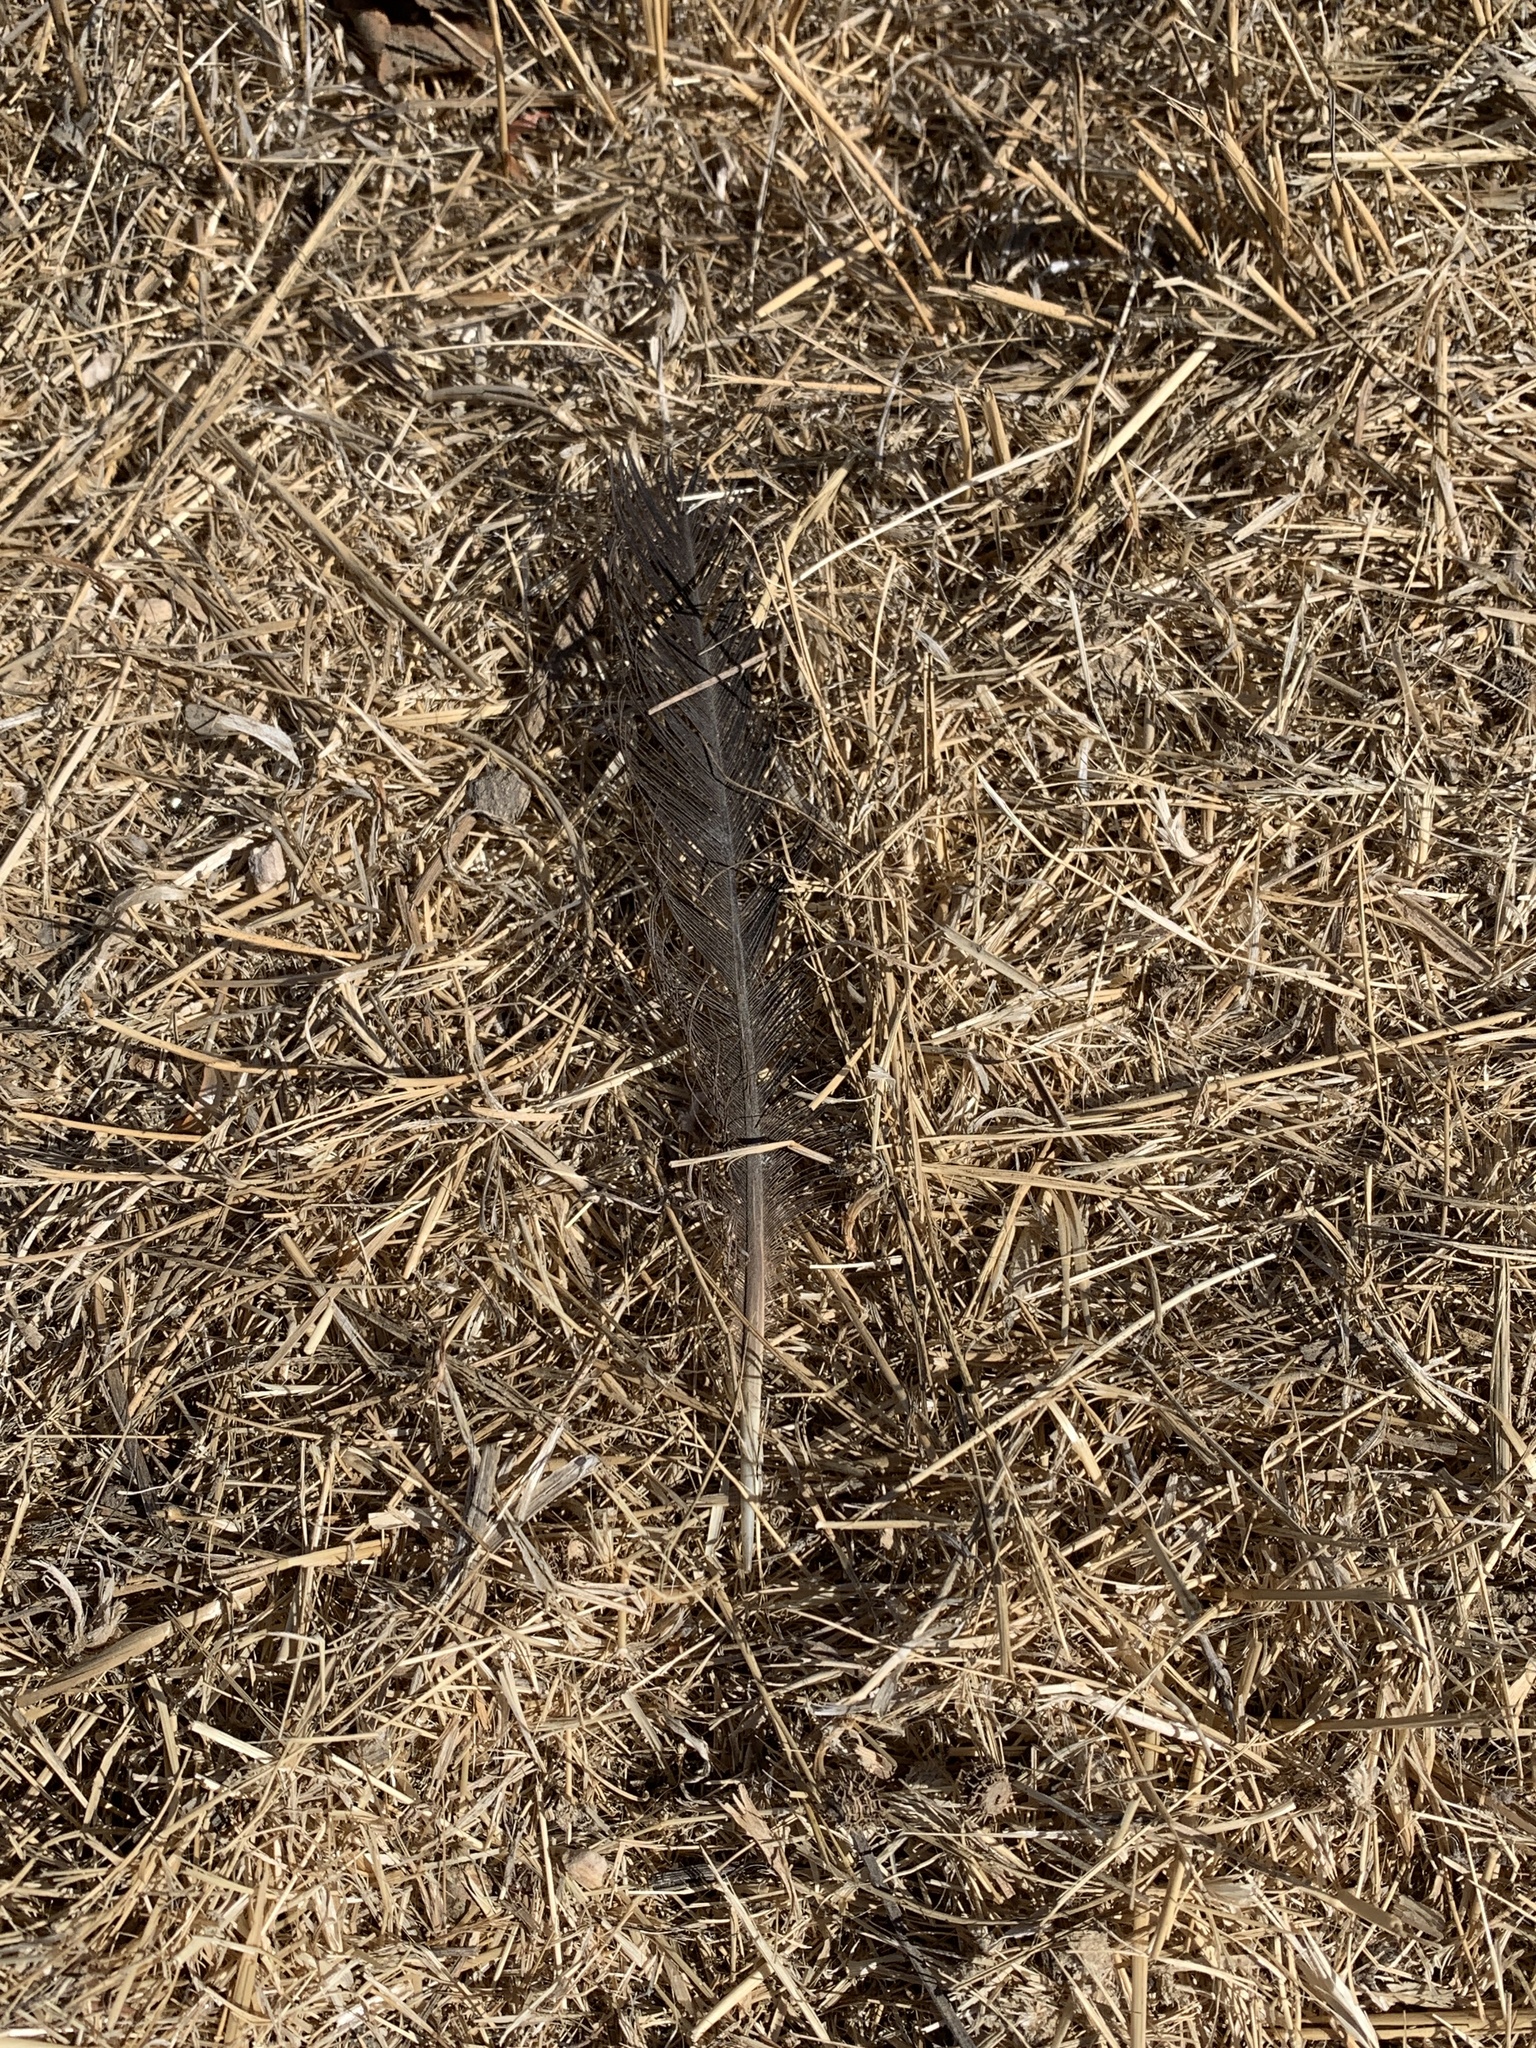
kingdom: Animalia
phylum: Chordata
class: Aves
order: Passeriformes
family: Corvidae
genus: Corvus
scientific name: Corvus brachyrhynchos
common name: American crow
